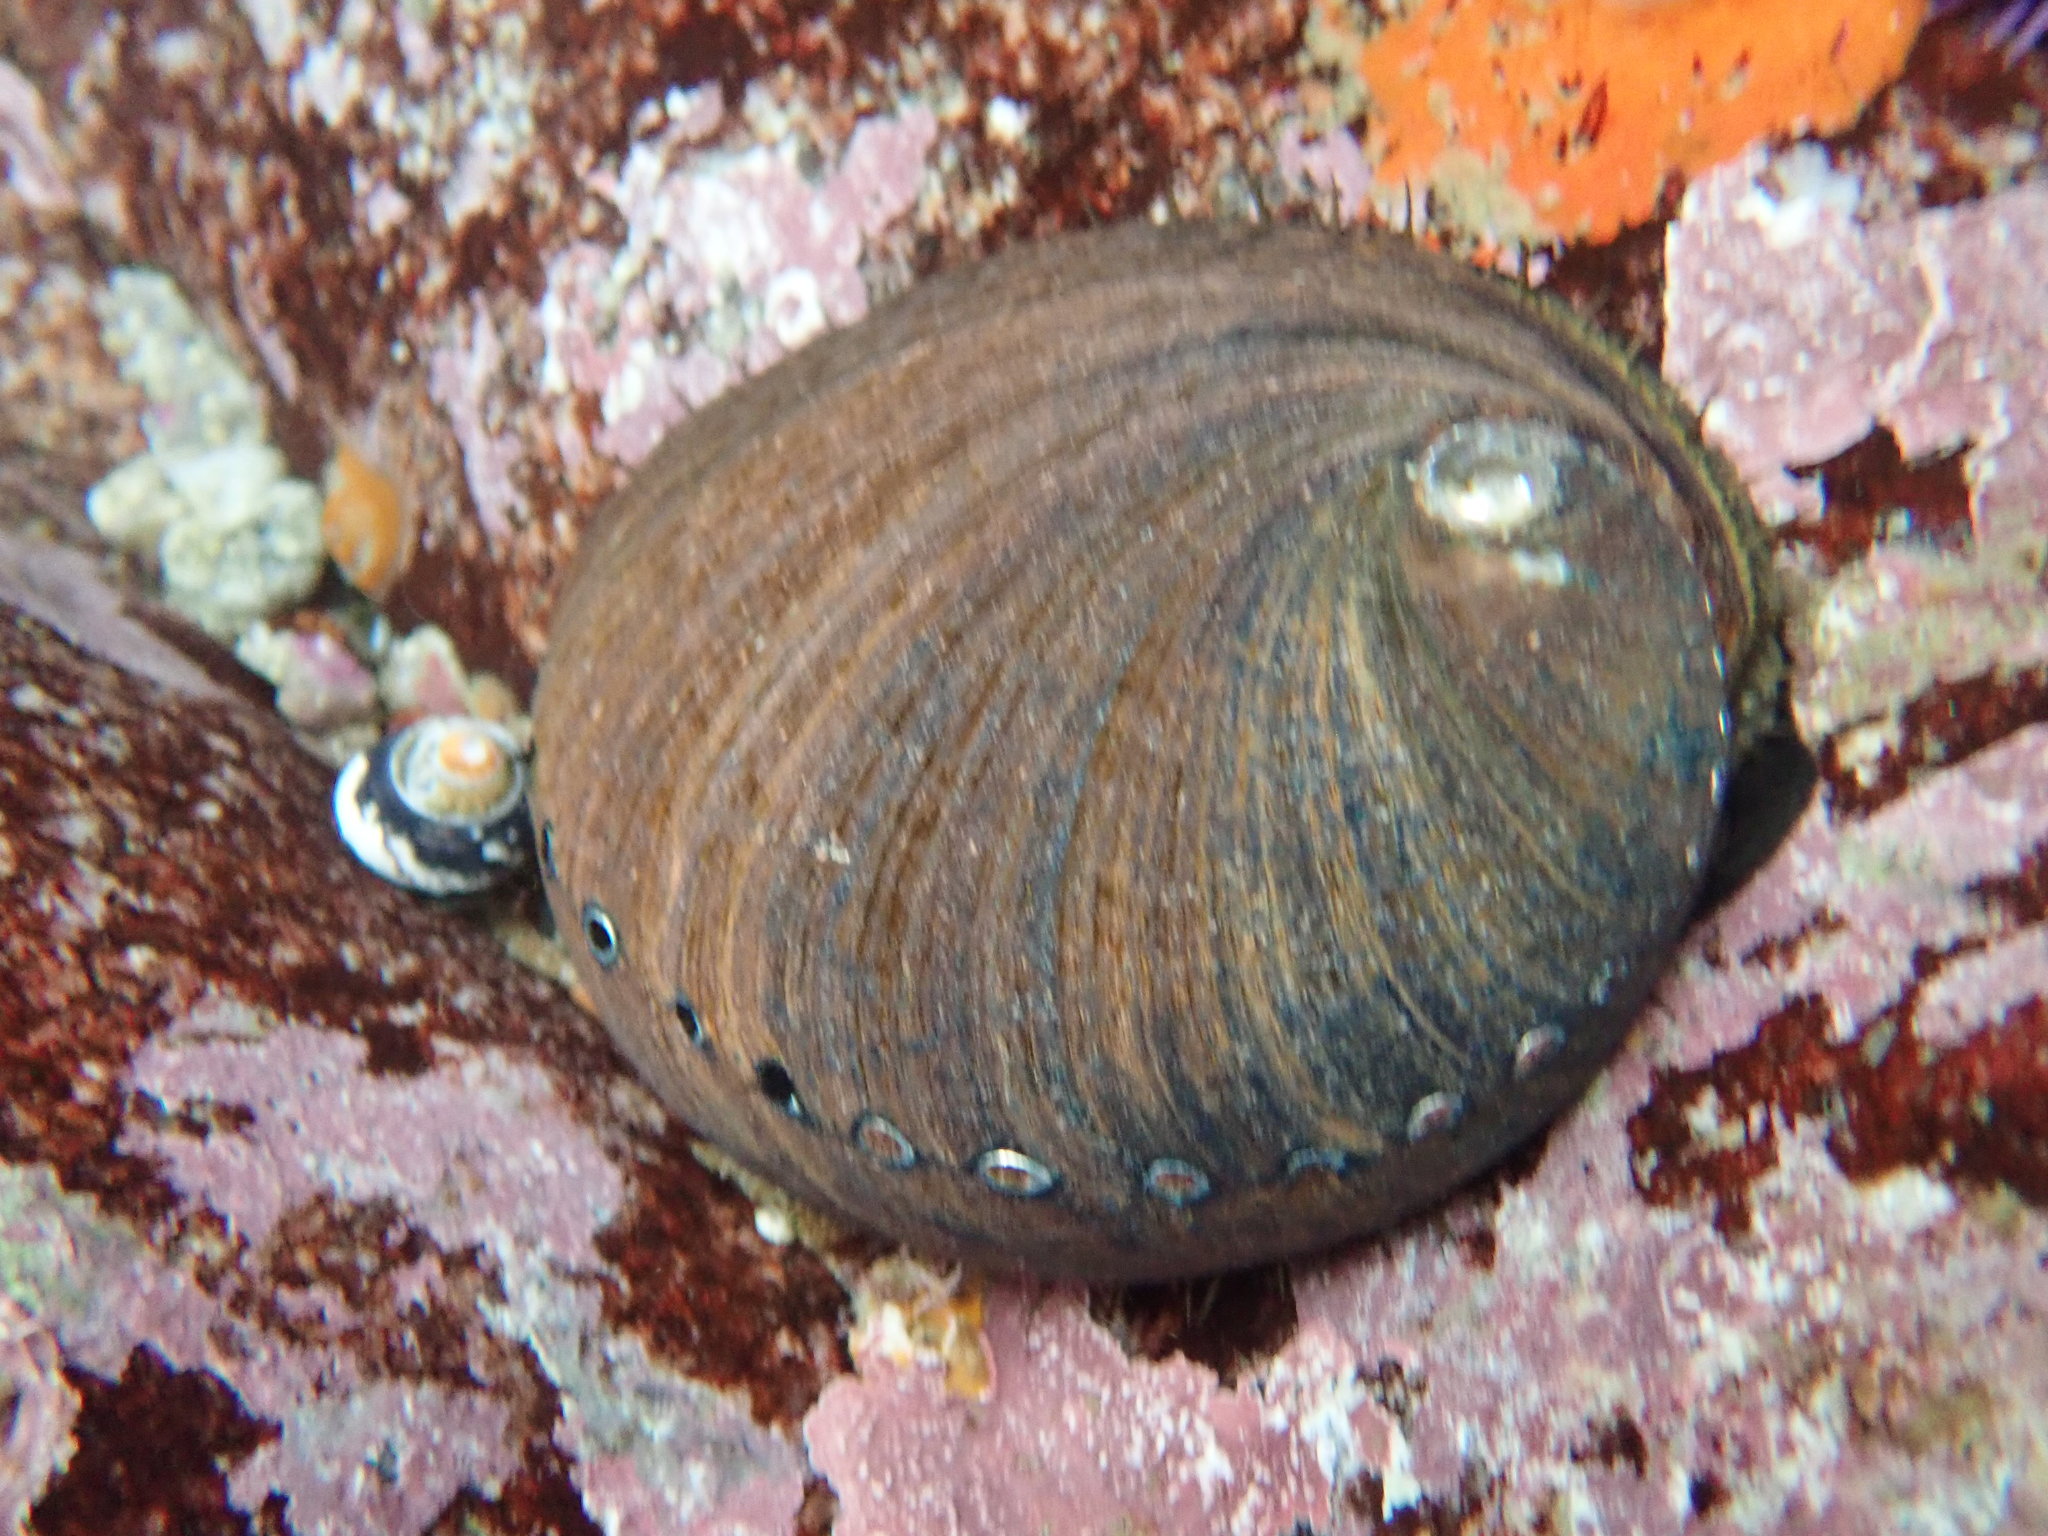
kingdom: Animalia
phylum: Mollusca
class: Gastropoda
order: Lepetellida
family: Haliotidae
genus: Haliotis
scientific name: Haliotis cracherodii
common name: Black abalone
